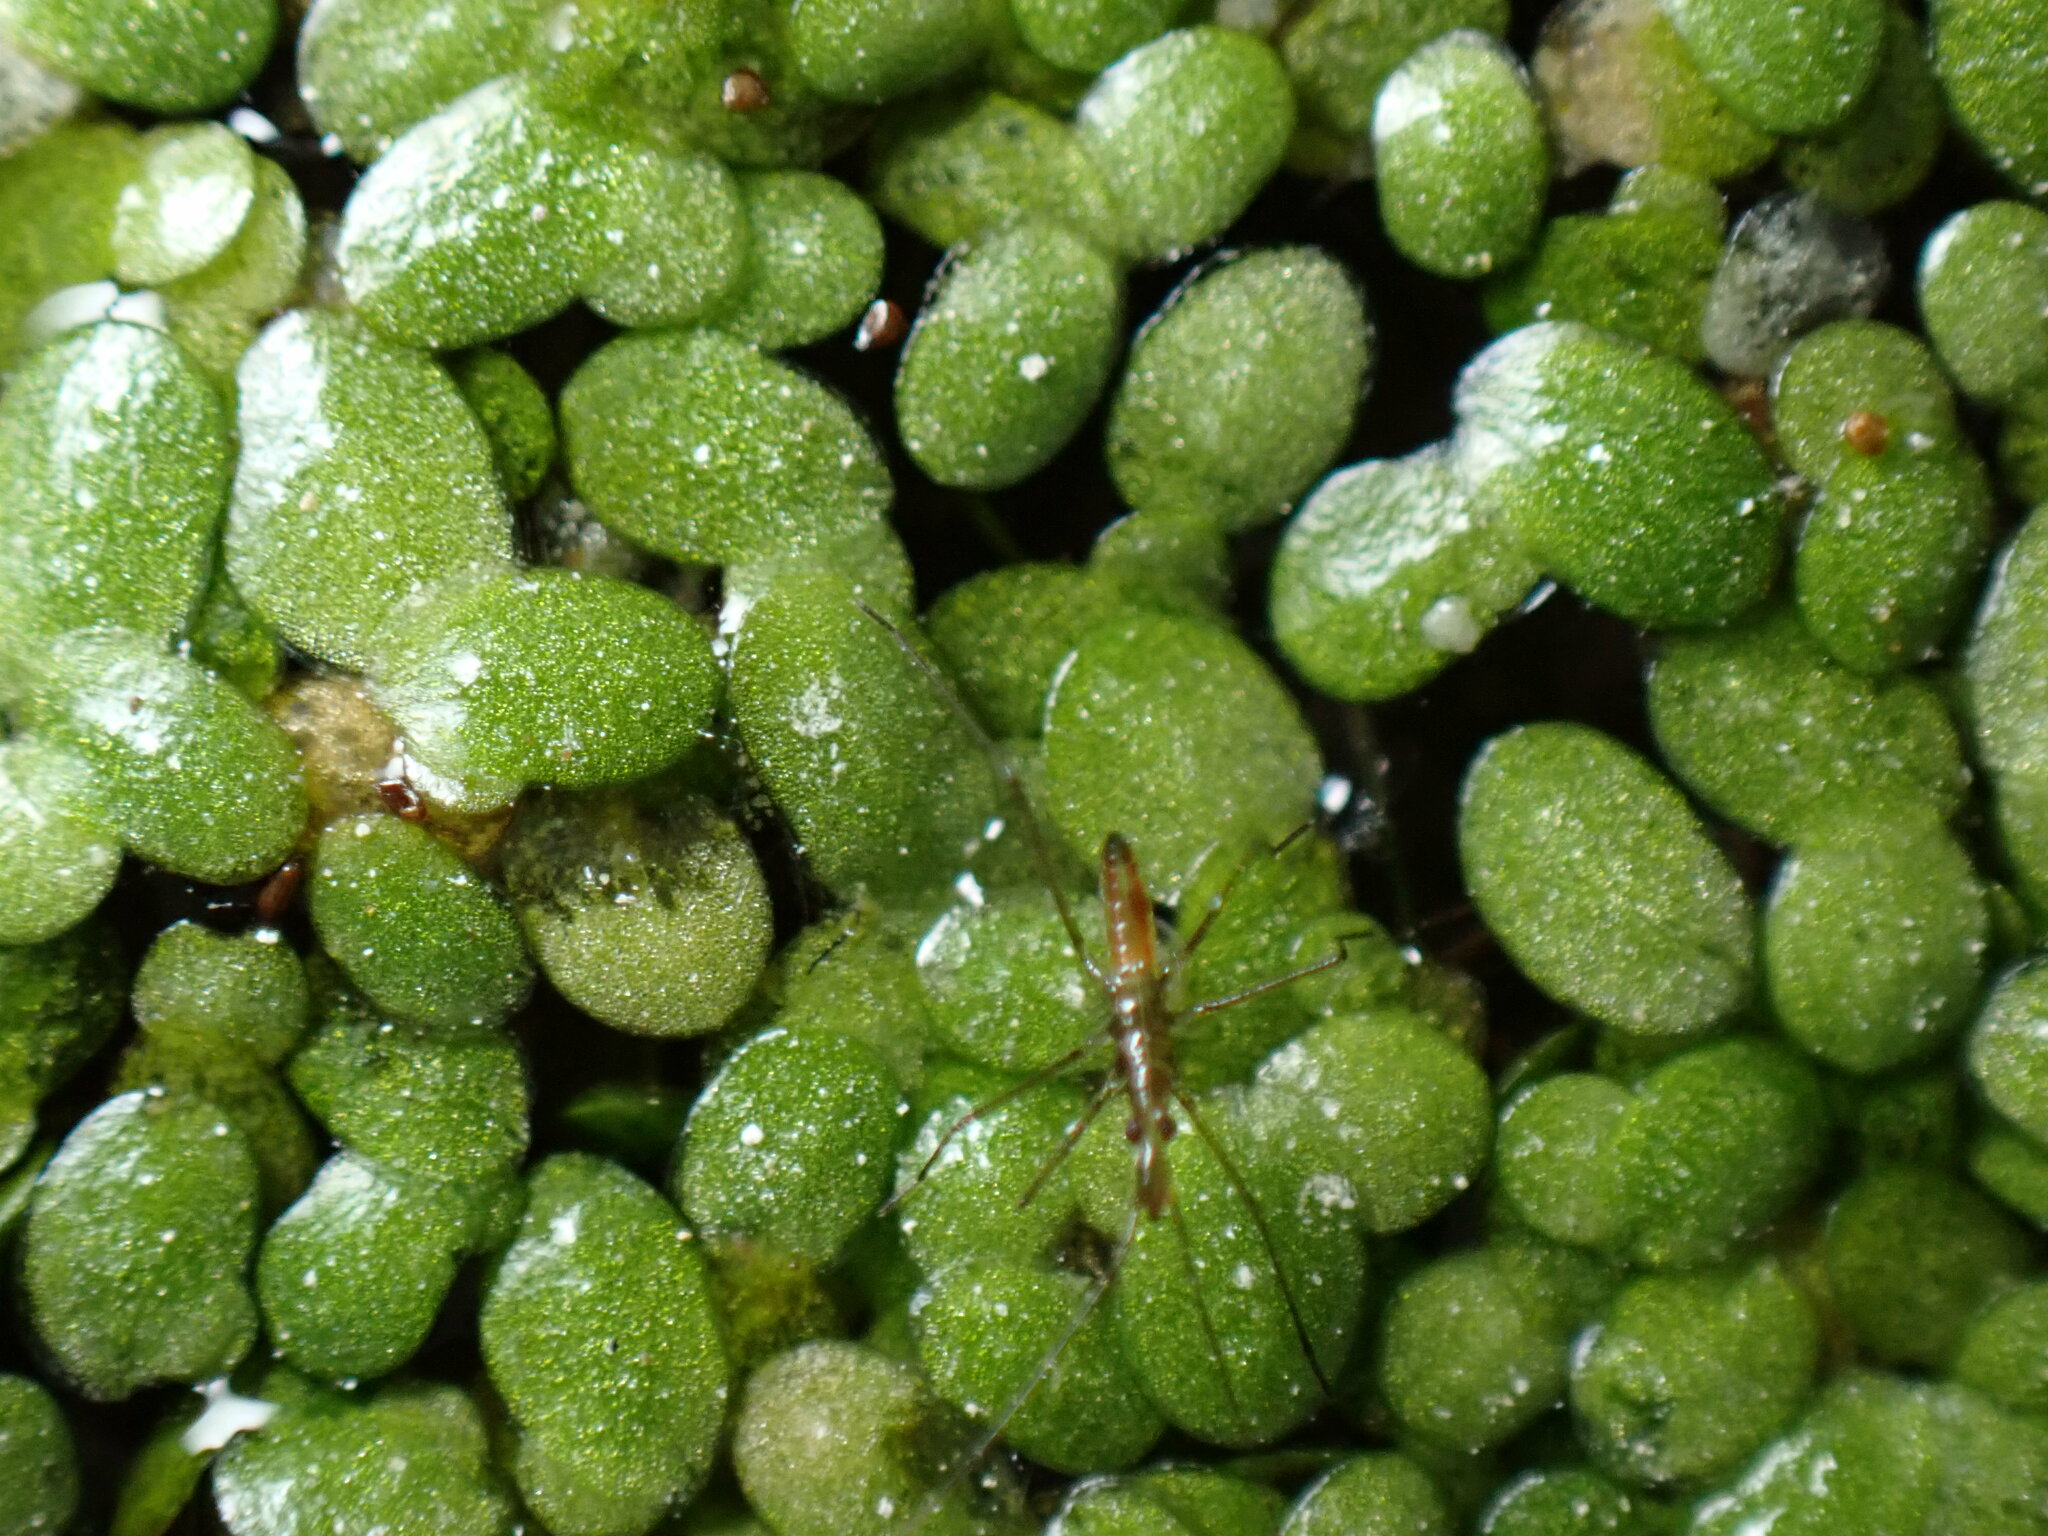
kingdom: Animalia
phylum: Arthropoda
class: Insecta
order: Hemiptera
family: Hydrometridae
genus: Hydrometra
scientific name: Hydrometra stagnorum
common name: Water measurer
